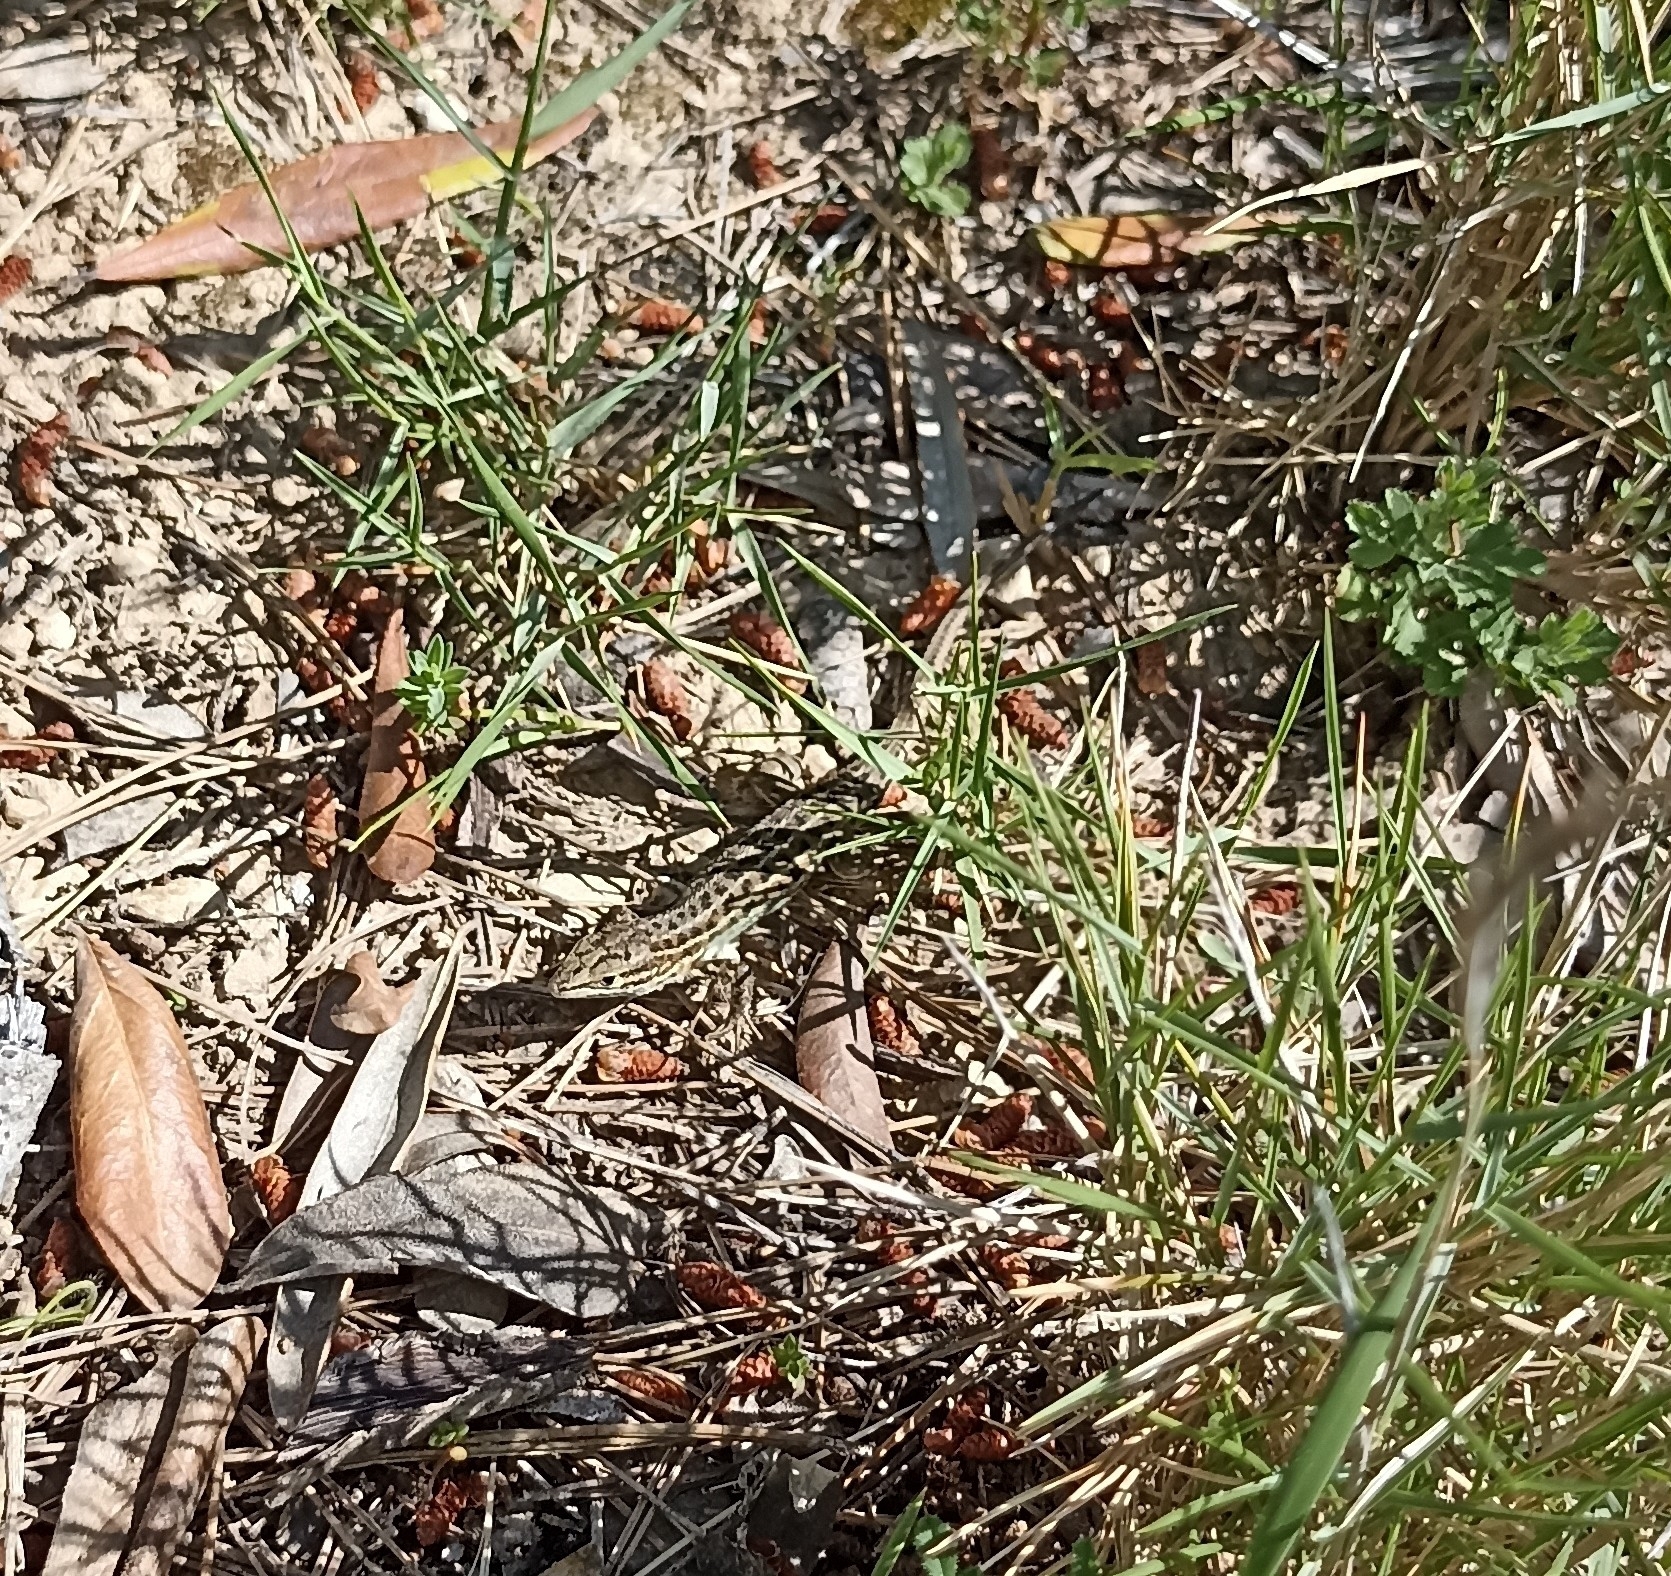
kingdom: Animalia
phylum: Chordata
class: Squamata
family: Lacertidae
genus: Psammodromus
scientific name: Psammodromus edwarsianus
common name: East iberian psammodromus
